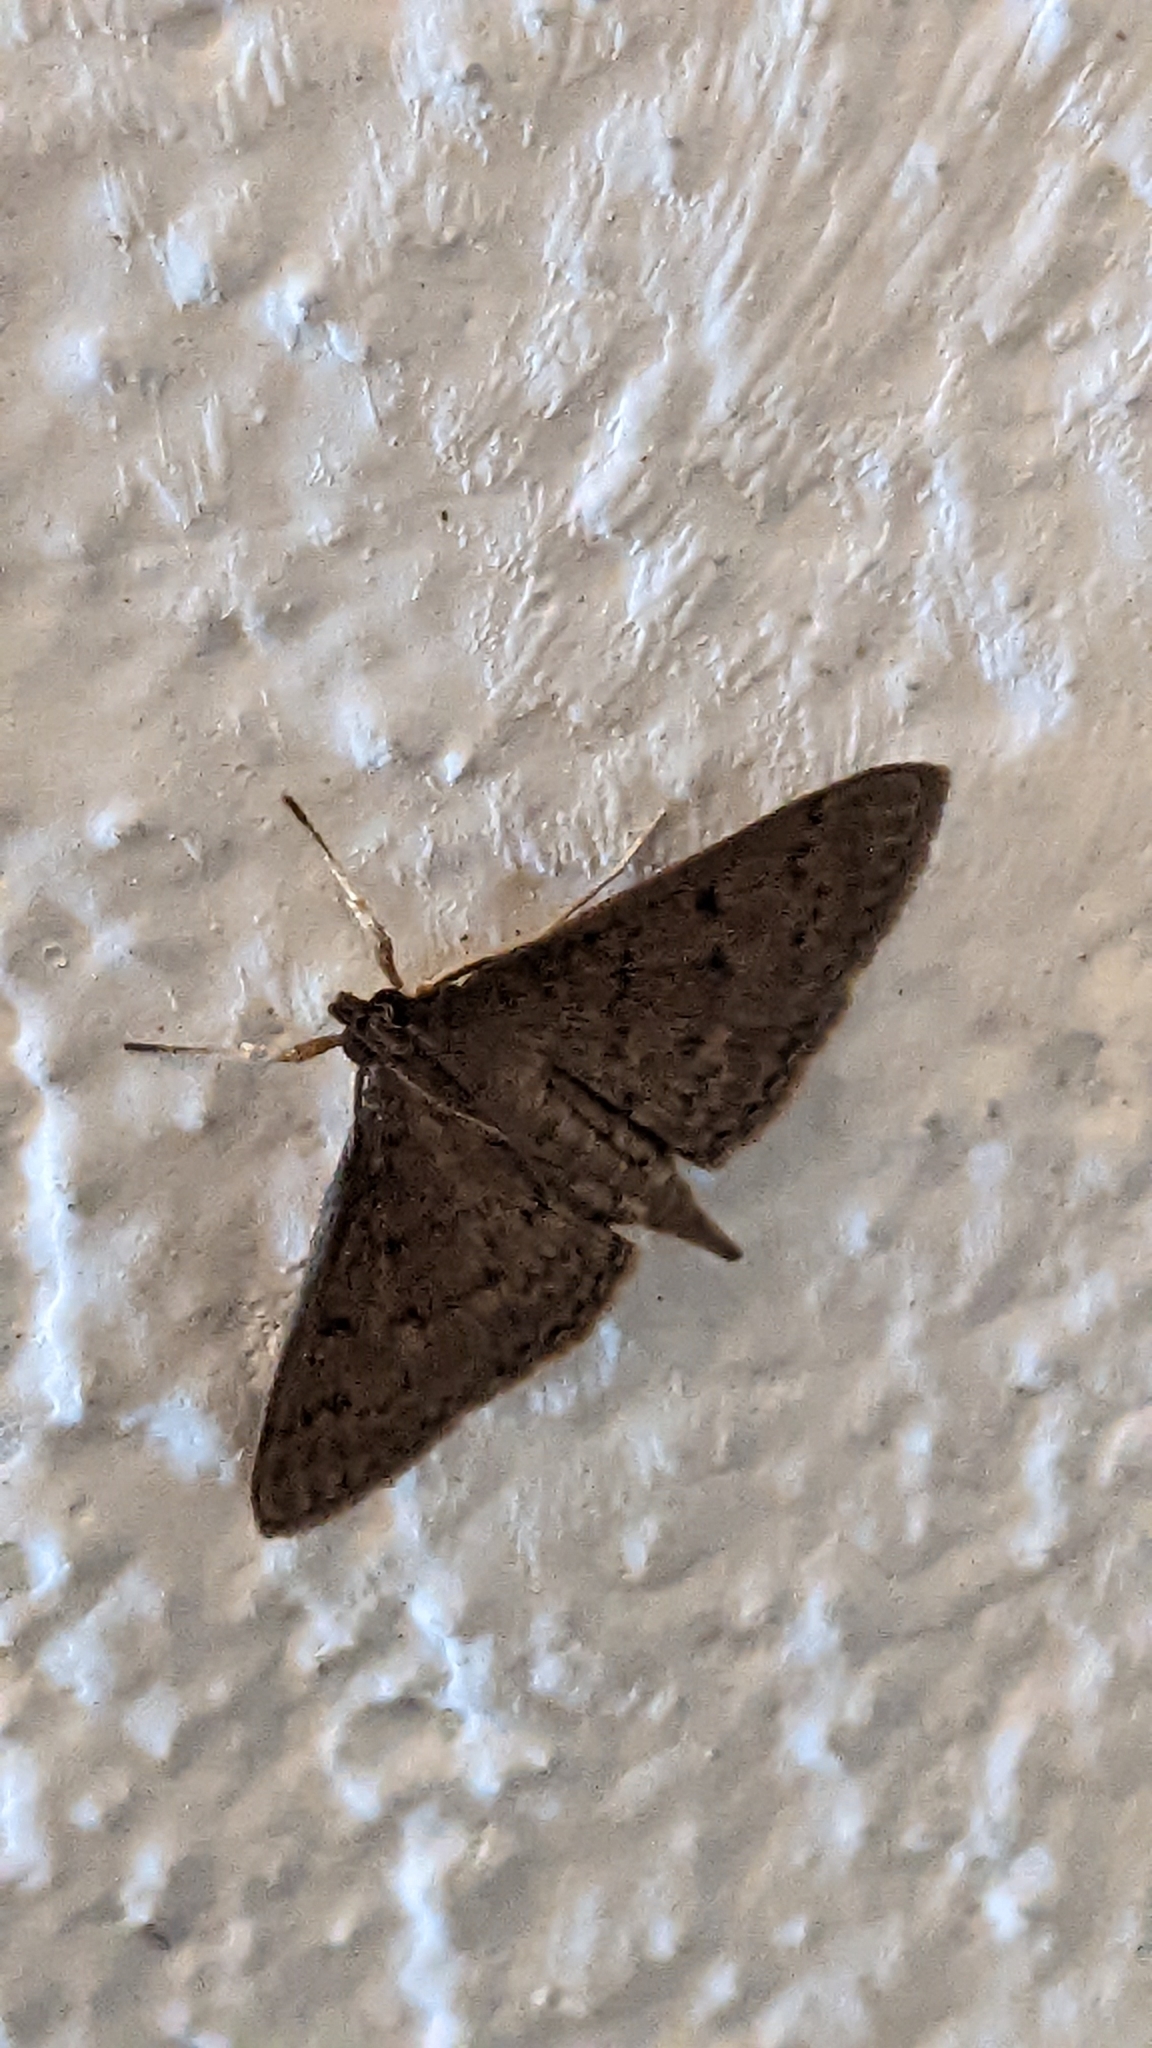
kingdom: Animalia
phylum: Arthropoda
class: Insecta
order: Lepidoptera
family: Crambidae
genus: Herpetogramma
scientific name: Herpetogramma licarsisalis
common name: Grass webworm
